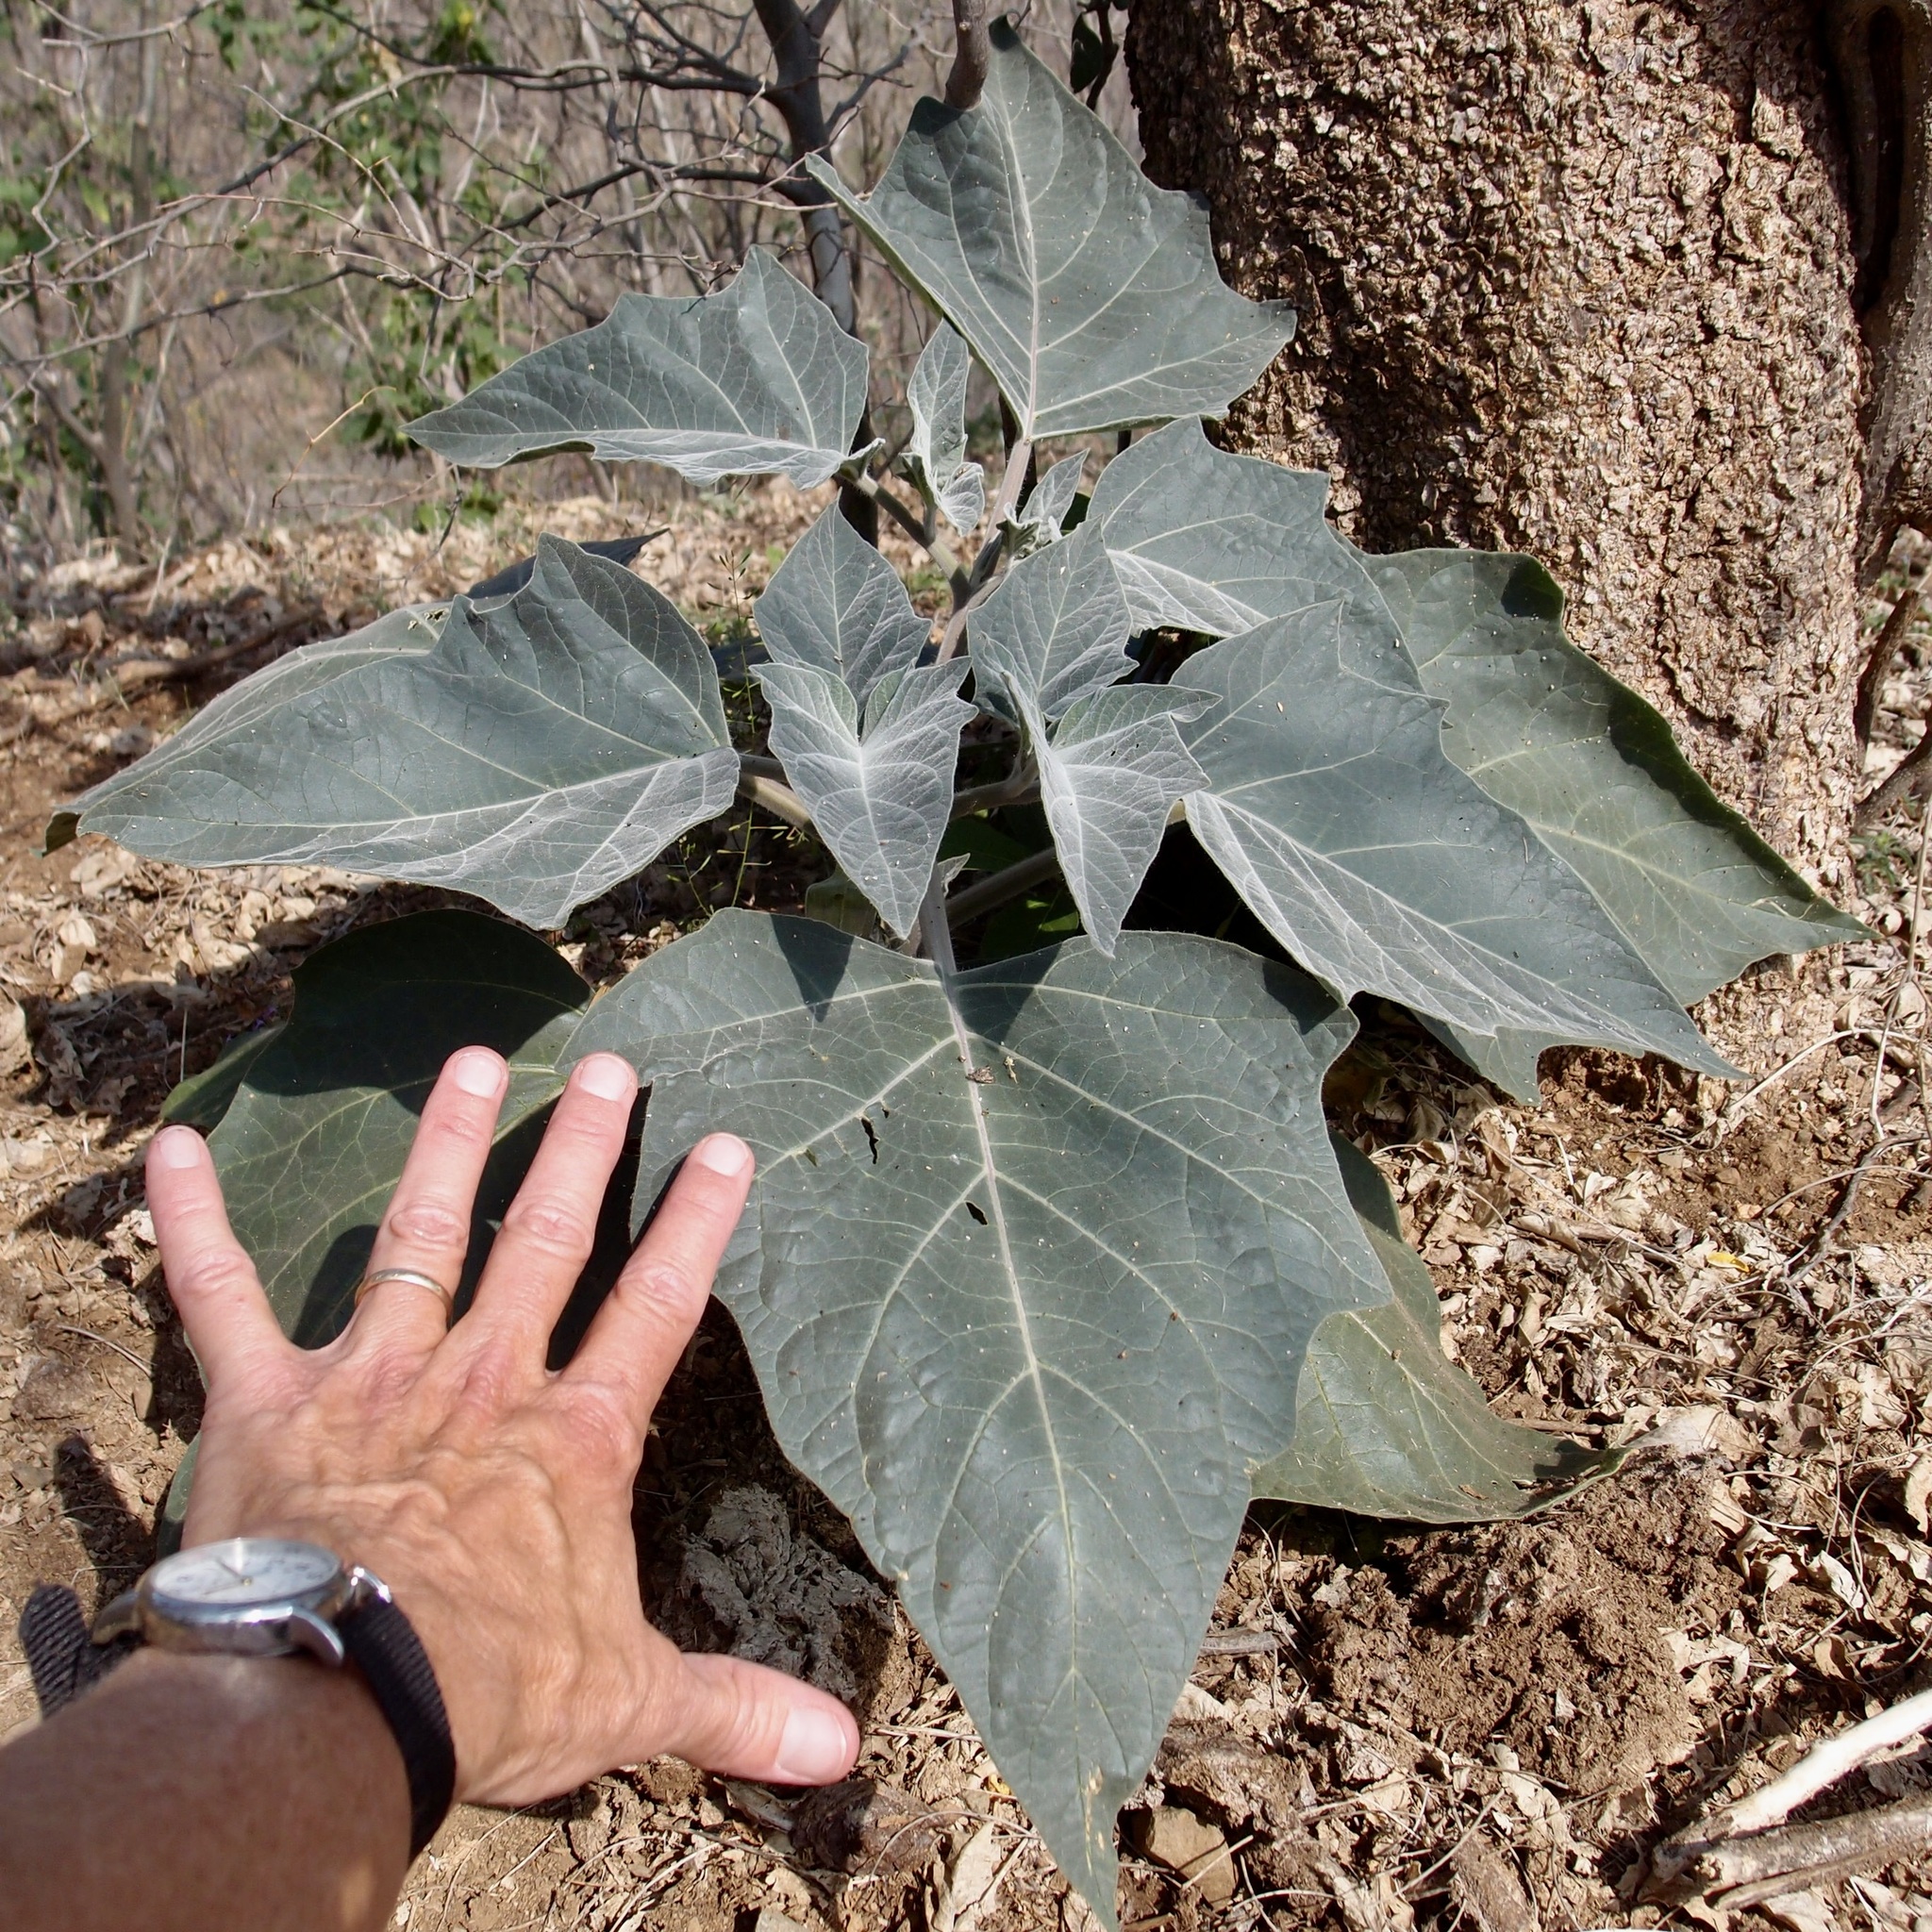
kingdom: Plantae
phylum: Tracheophyta
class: Magnoliopsida
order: Solanales
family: Solanaceae
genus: Datura
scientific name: Datura wrightii
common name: Sacred thorn-apple
